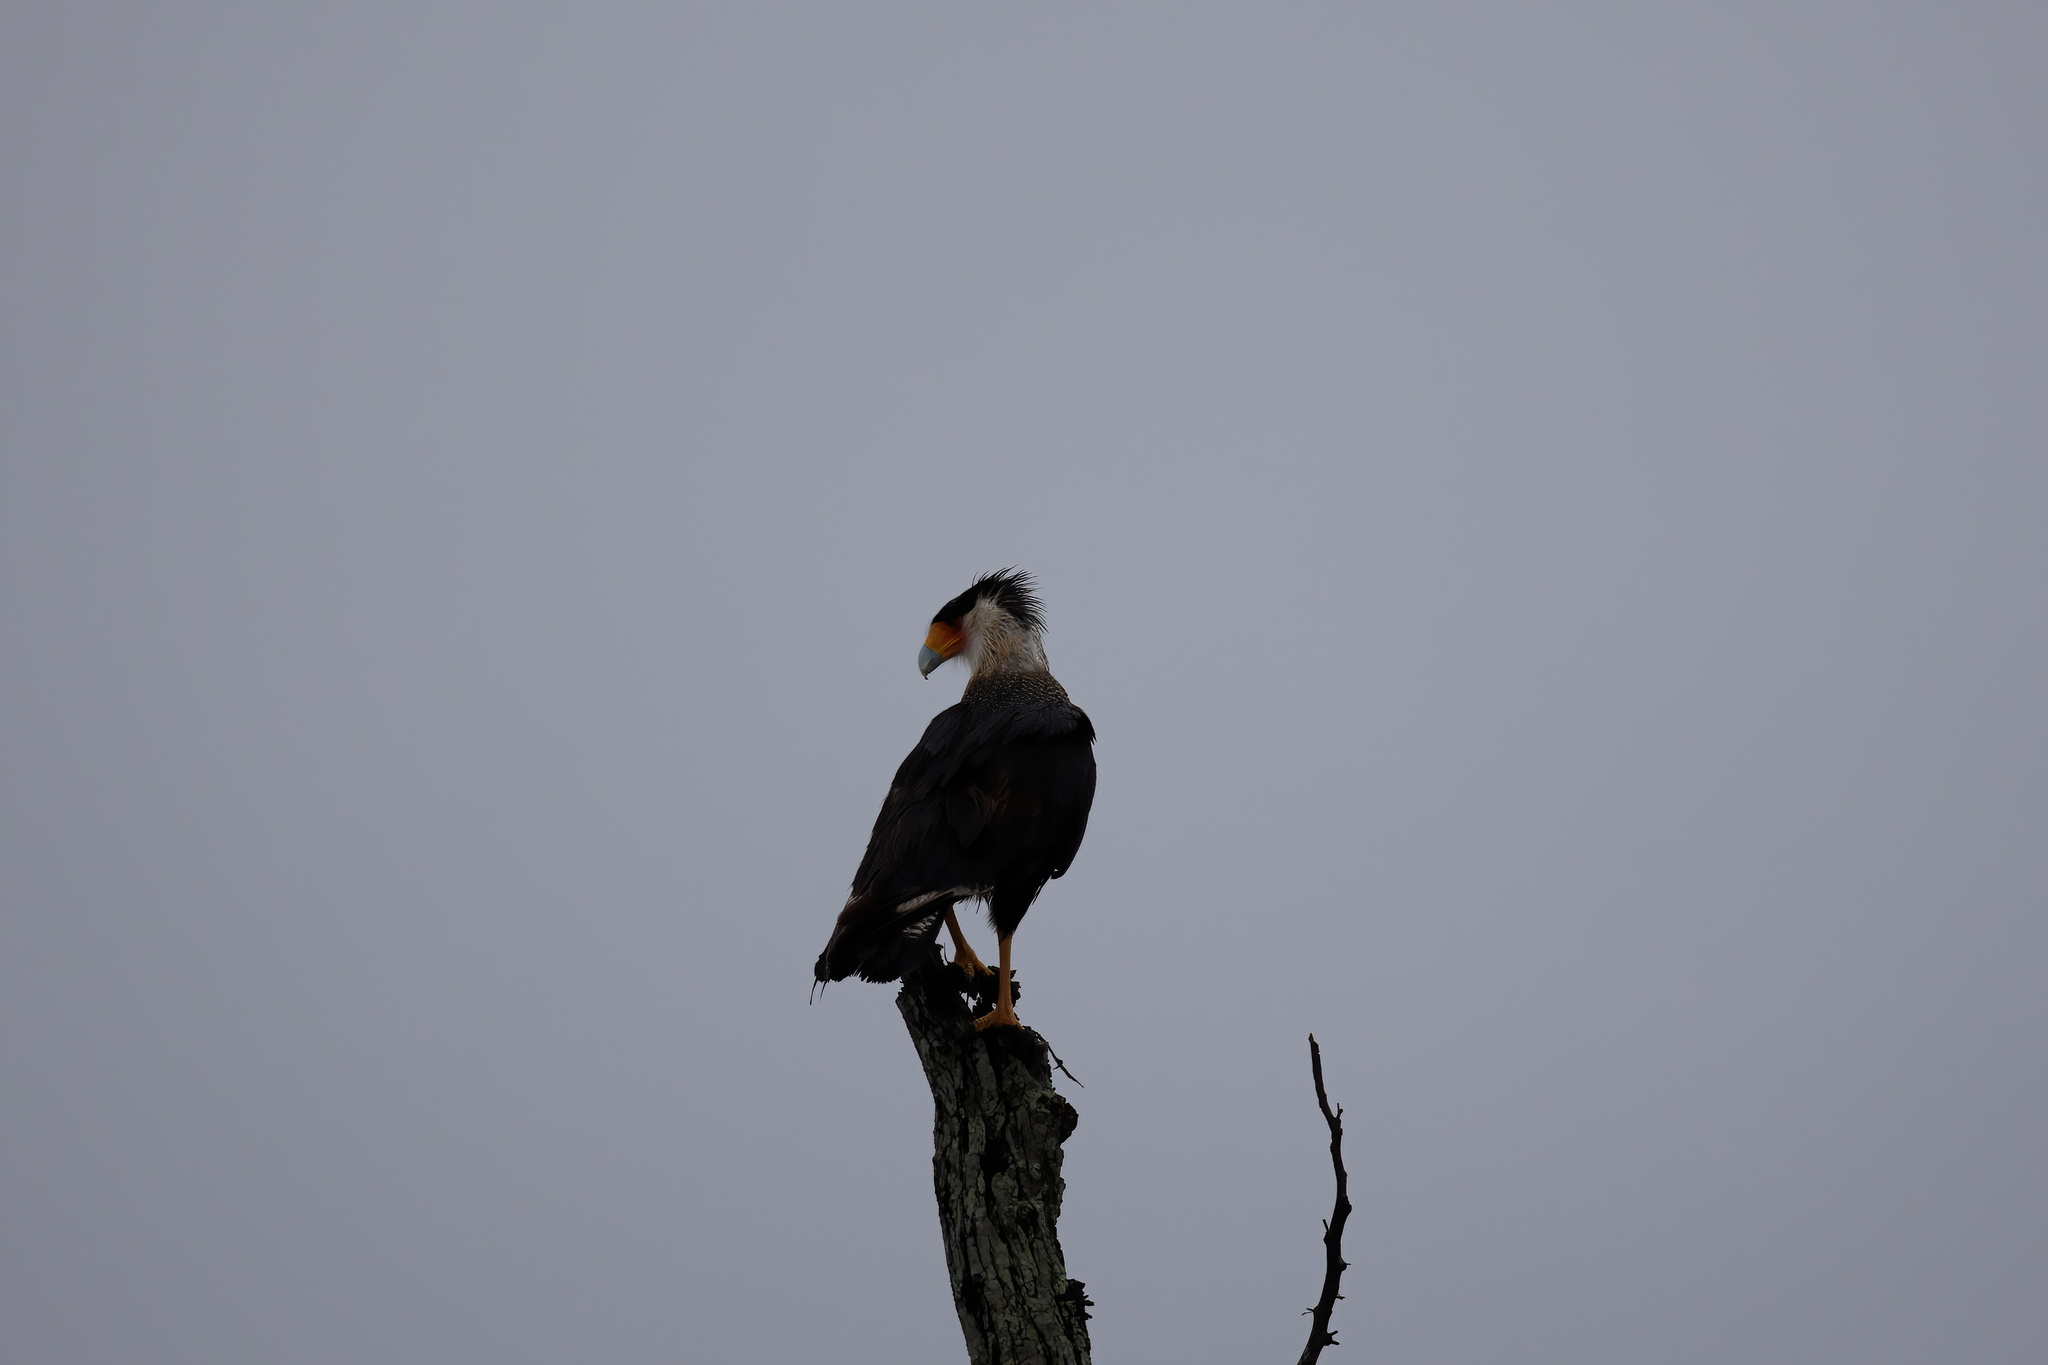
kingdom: Animalia
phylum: Chordata
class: Aves
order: Falconiformes
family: Falconidae
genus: Caracara
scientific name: Caracara plancus
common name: Southern caracara
